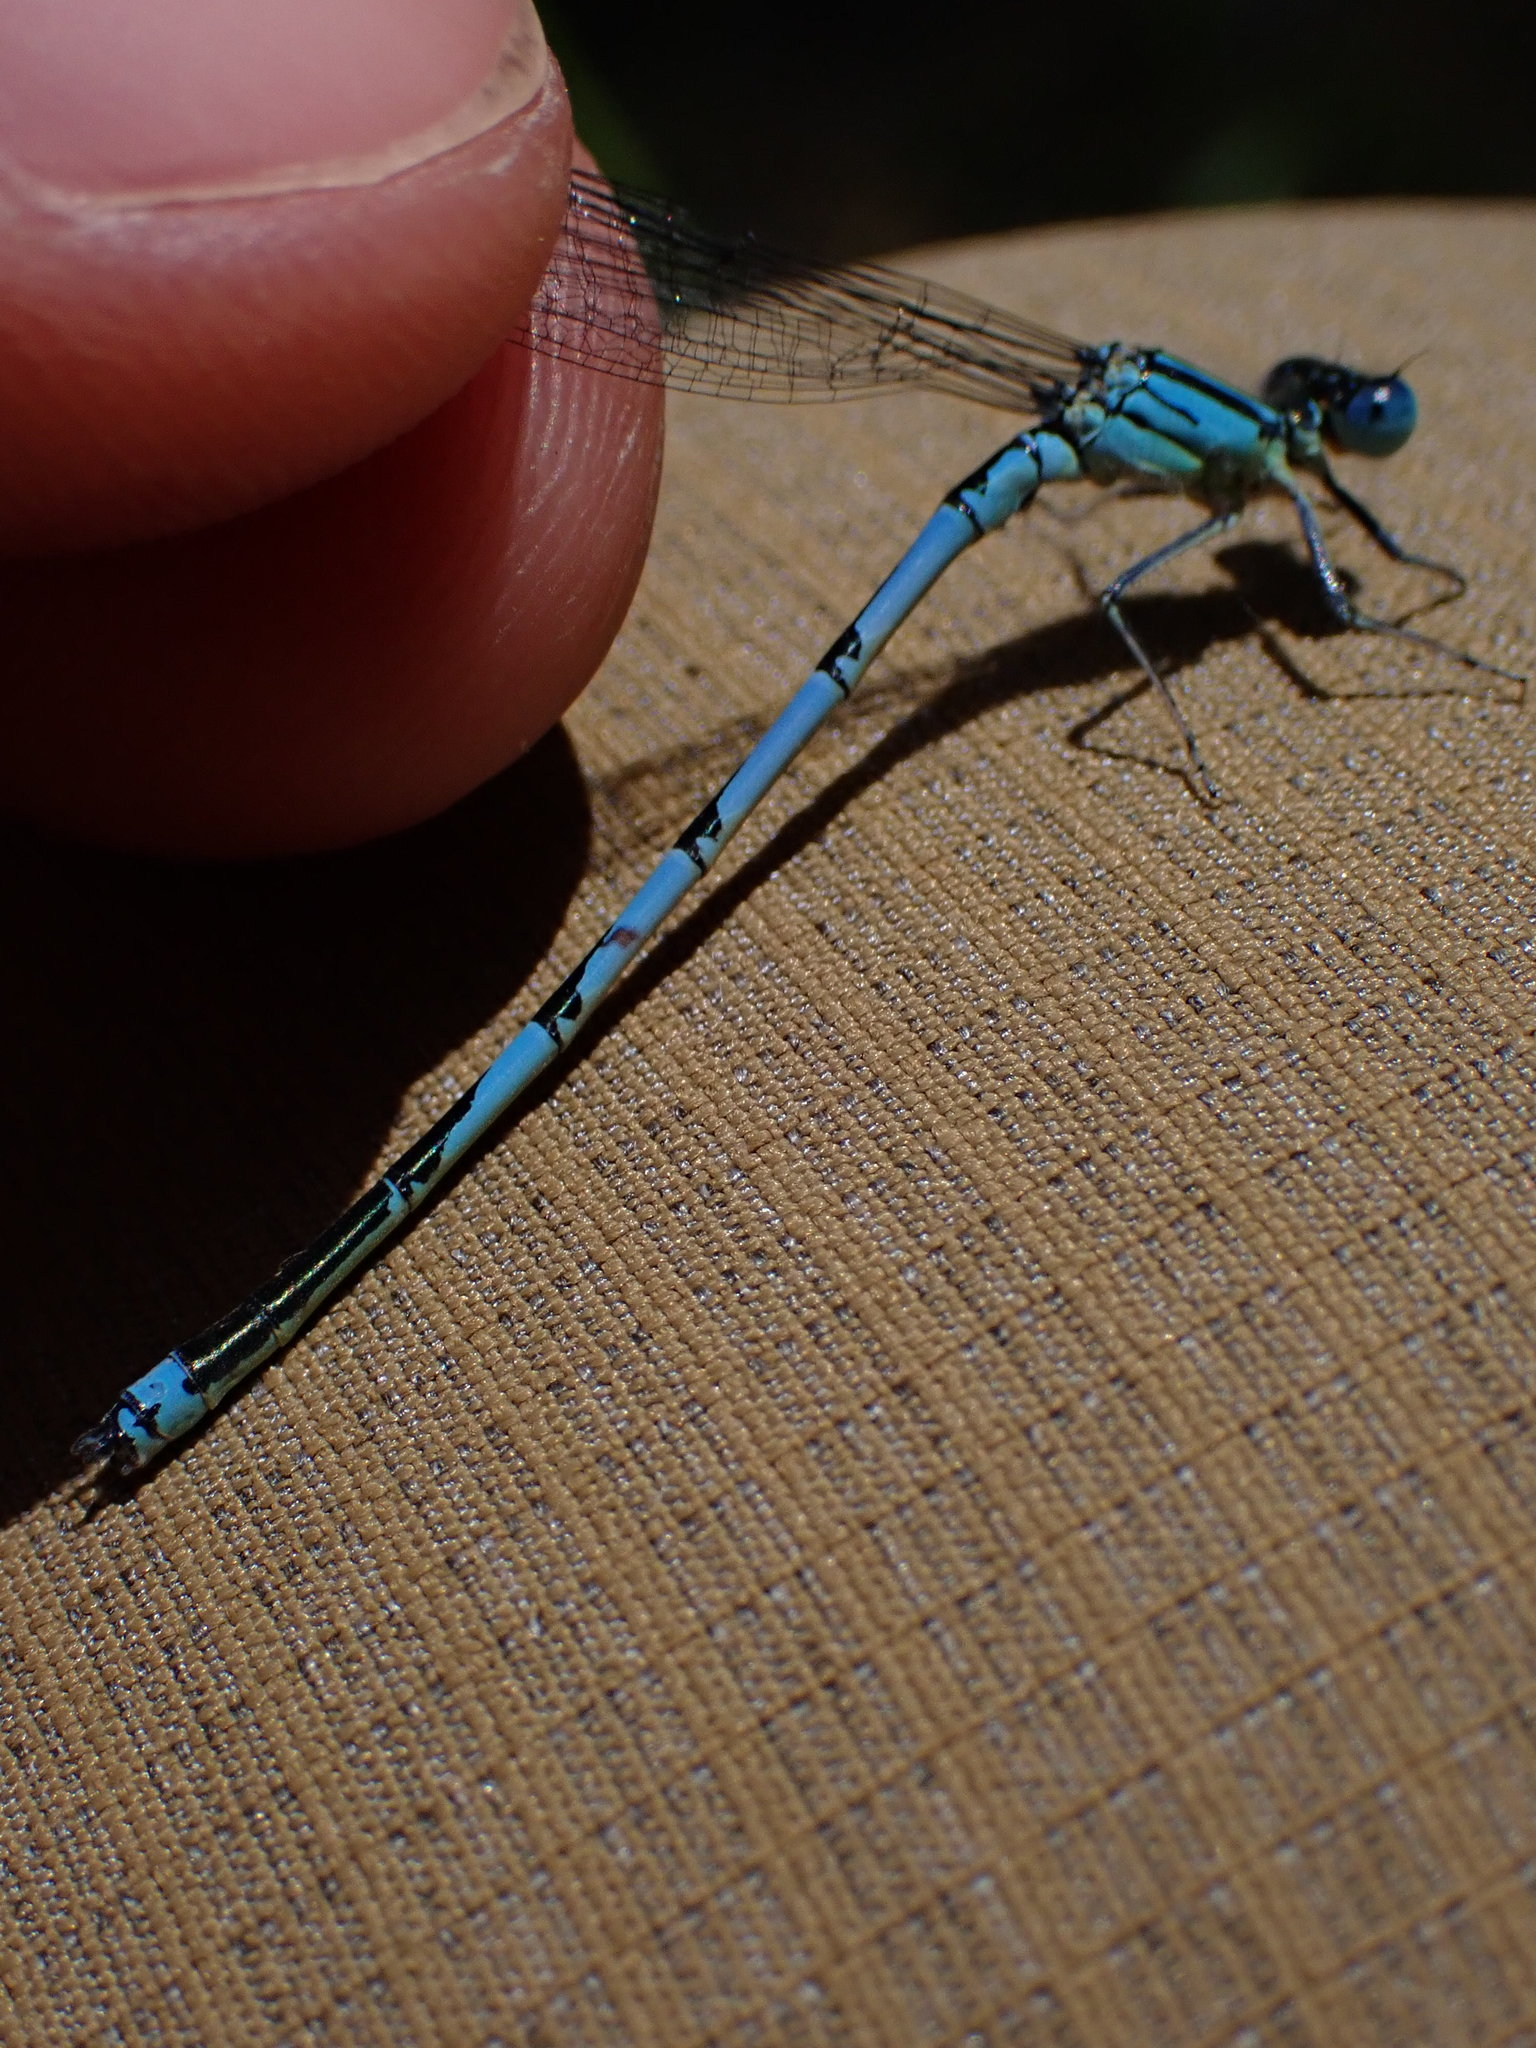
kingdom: Animalia
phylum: Arthropoda
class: Insecta
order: Odonata
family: Coenagrionidae
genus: Erythromma
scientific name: Erythromma lindenii
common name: Blue-eye
